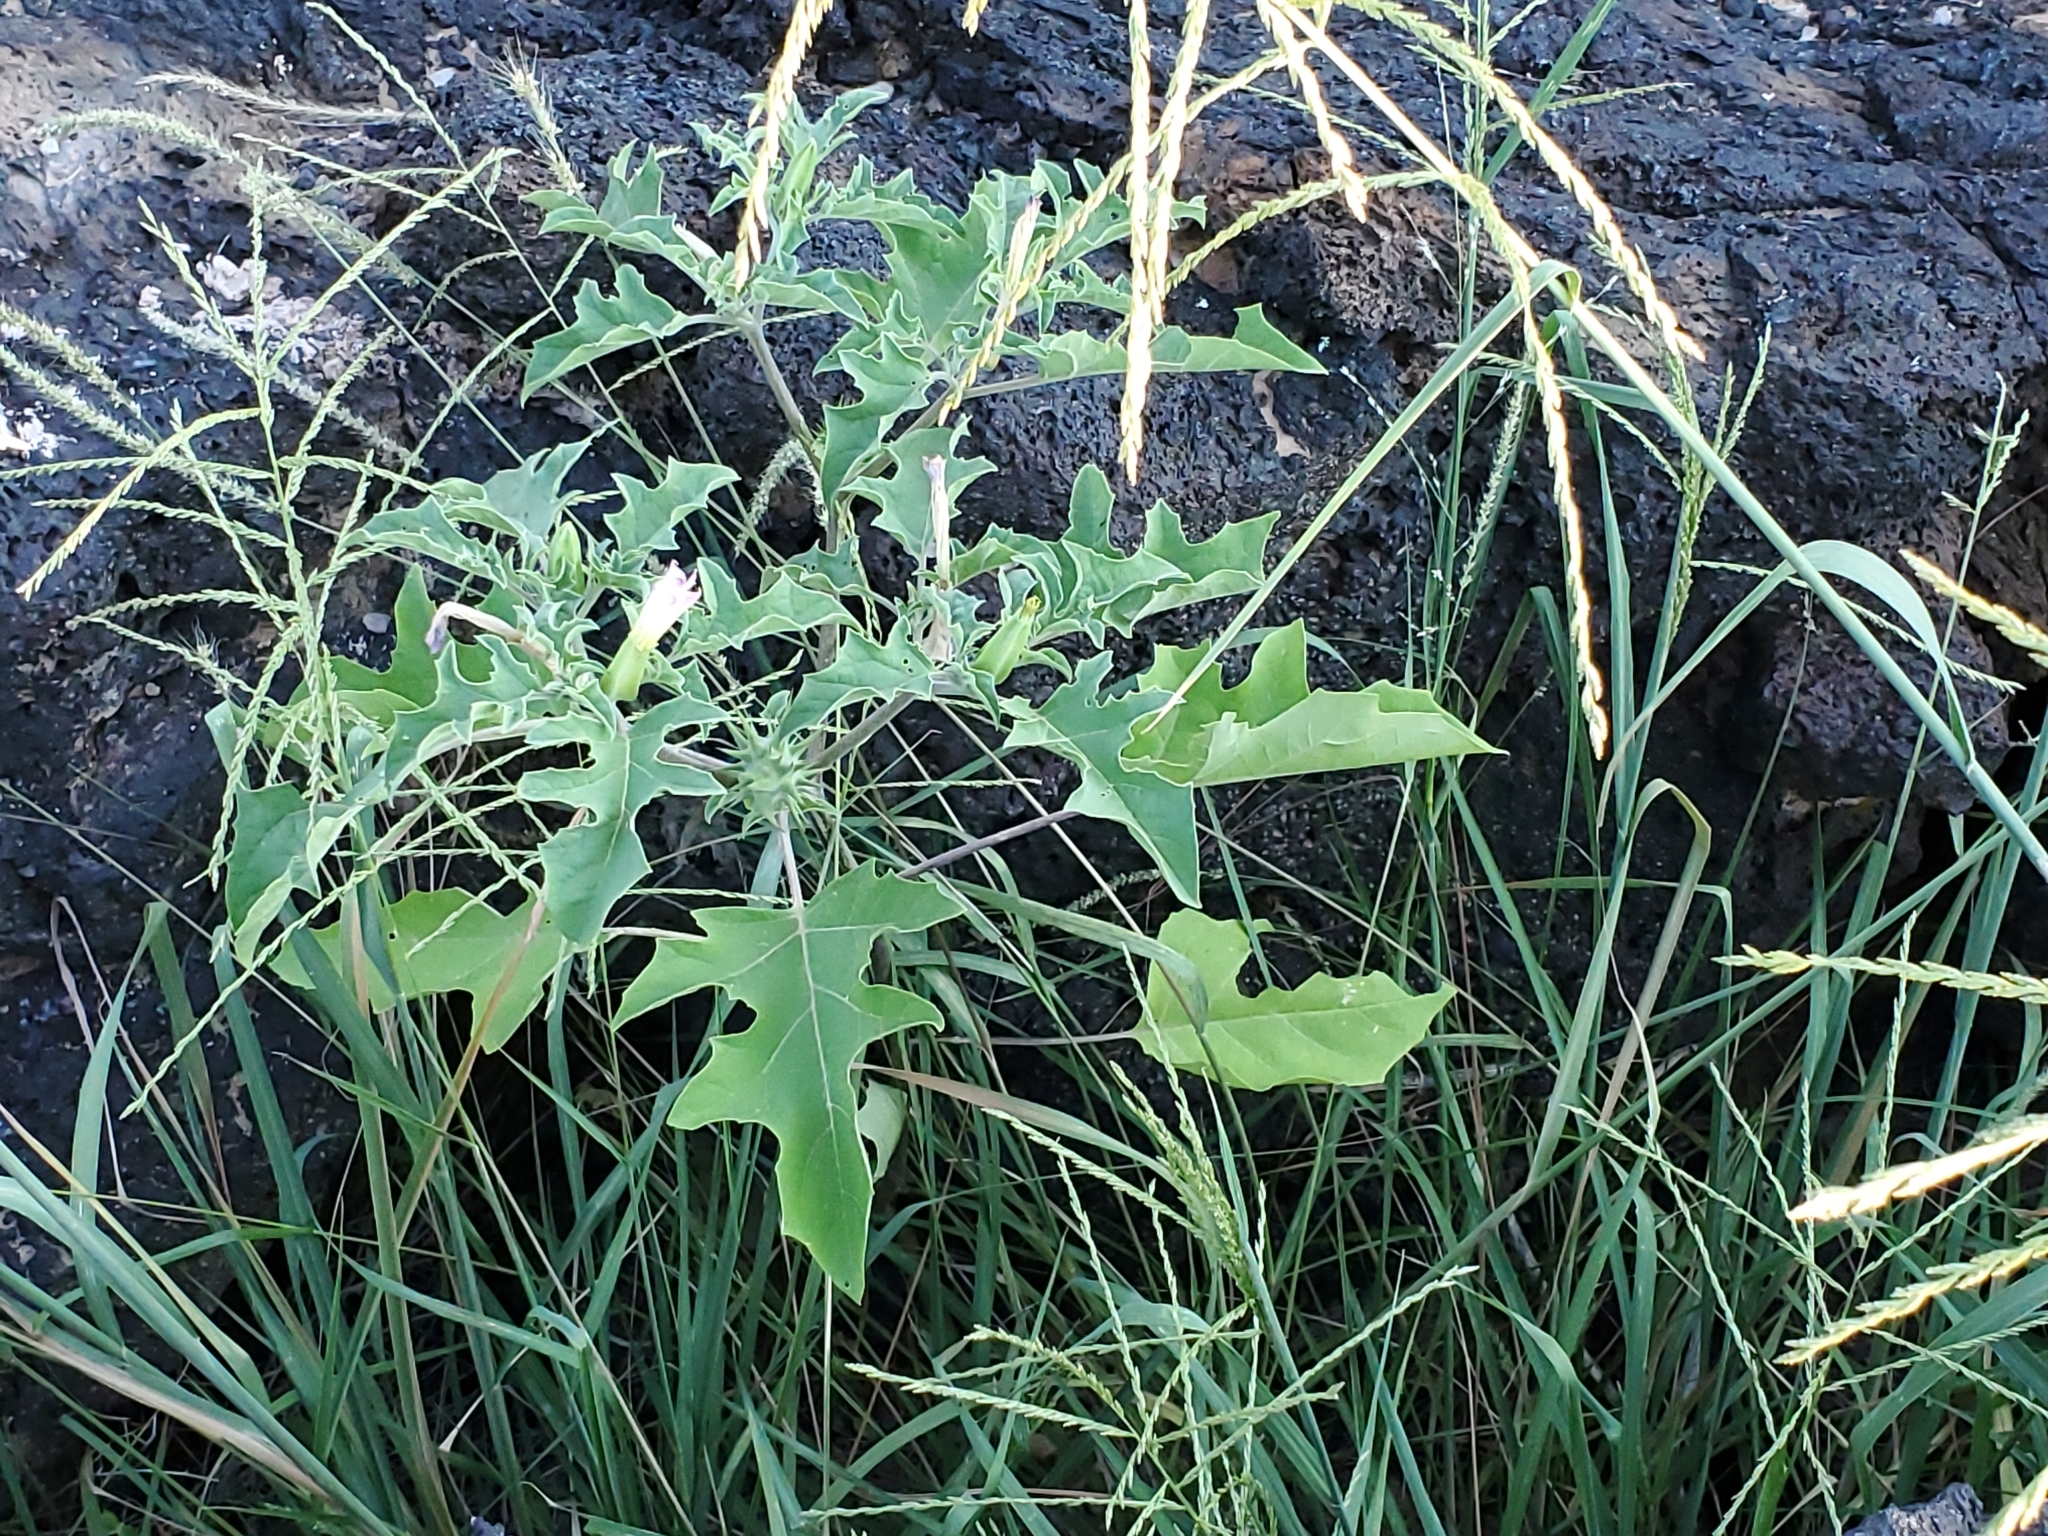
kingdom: Plantae
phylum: Tracheophyta
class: Magnoliopsida
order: Solanales
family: Solanaceae
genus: Datura
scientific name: Datura quercifolia
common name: Oak-leaf datura
